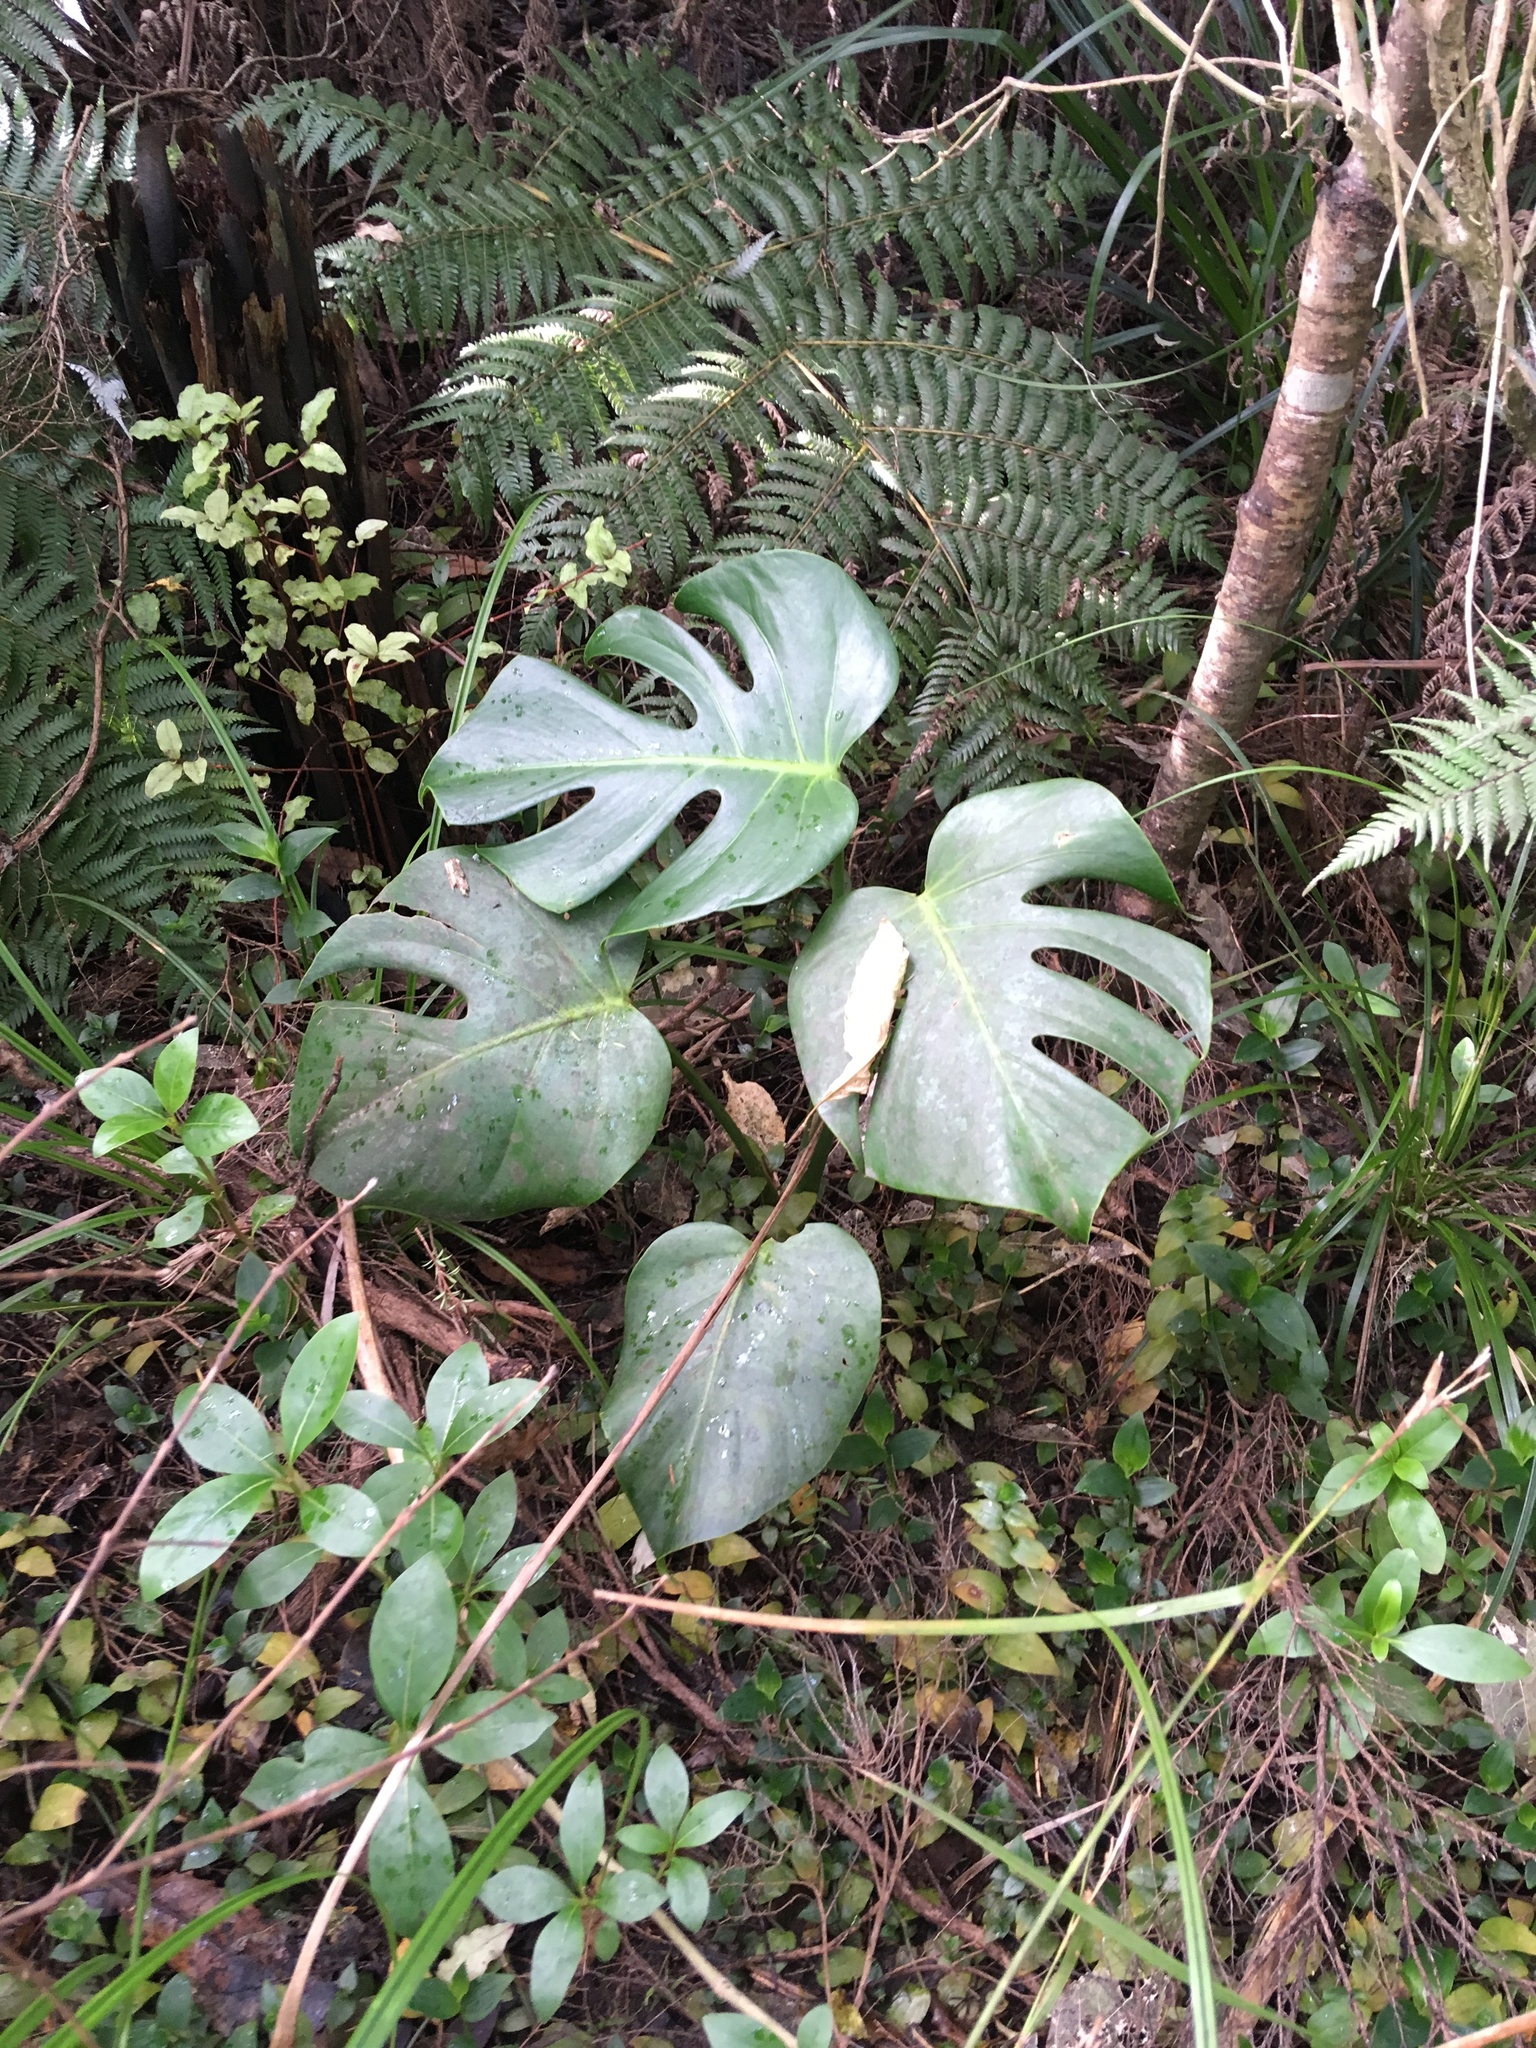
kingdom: Plantae
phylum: Tracheophyta
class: Liliopsida
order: Alismatales
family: Araceae
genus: Monstera
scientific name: Monstera deliciosa
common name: Cut-leaf-philodendron
